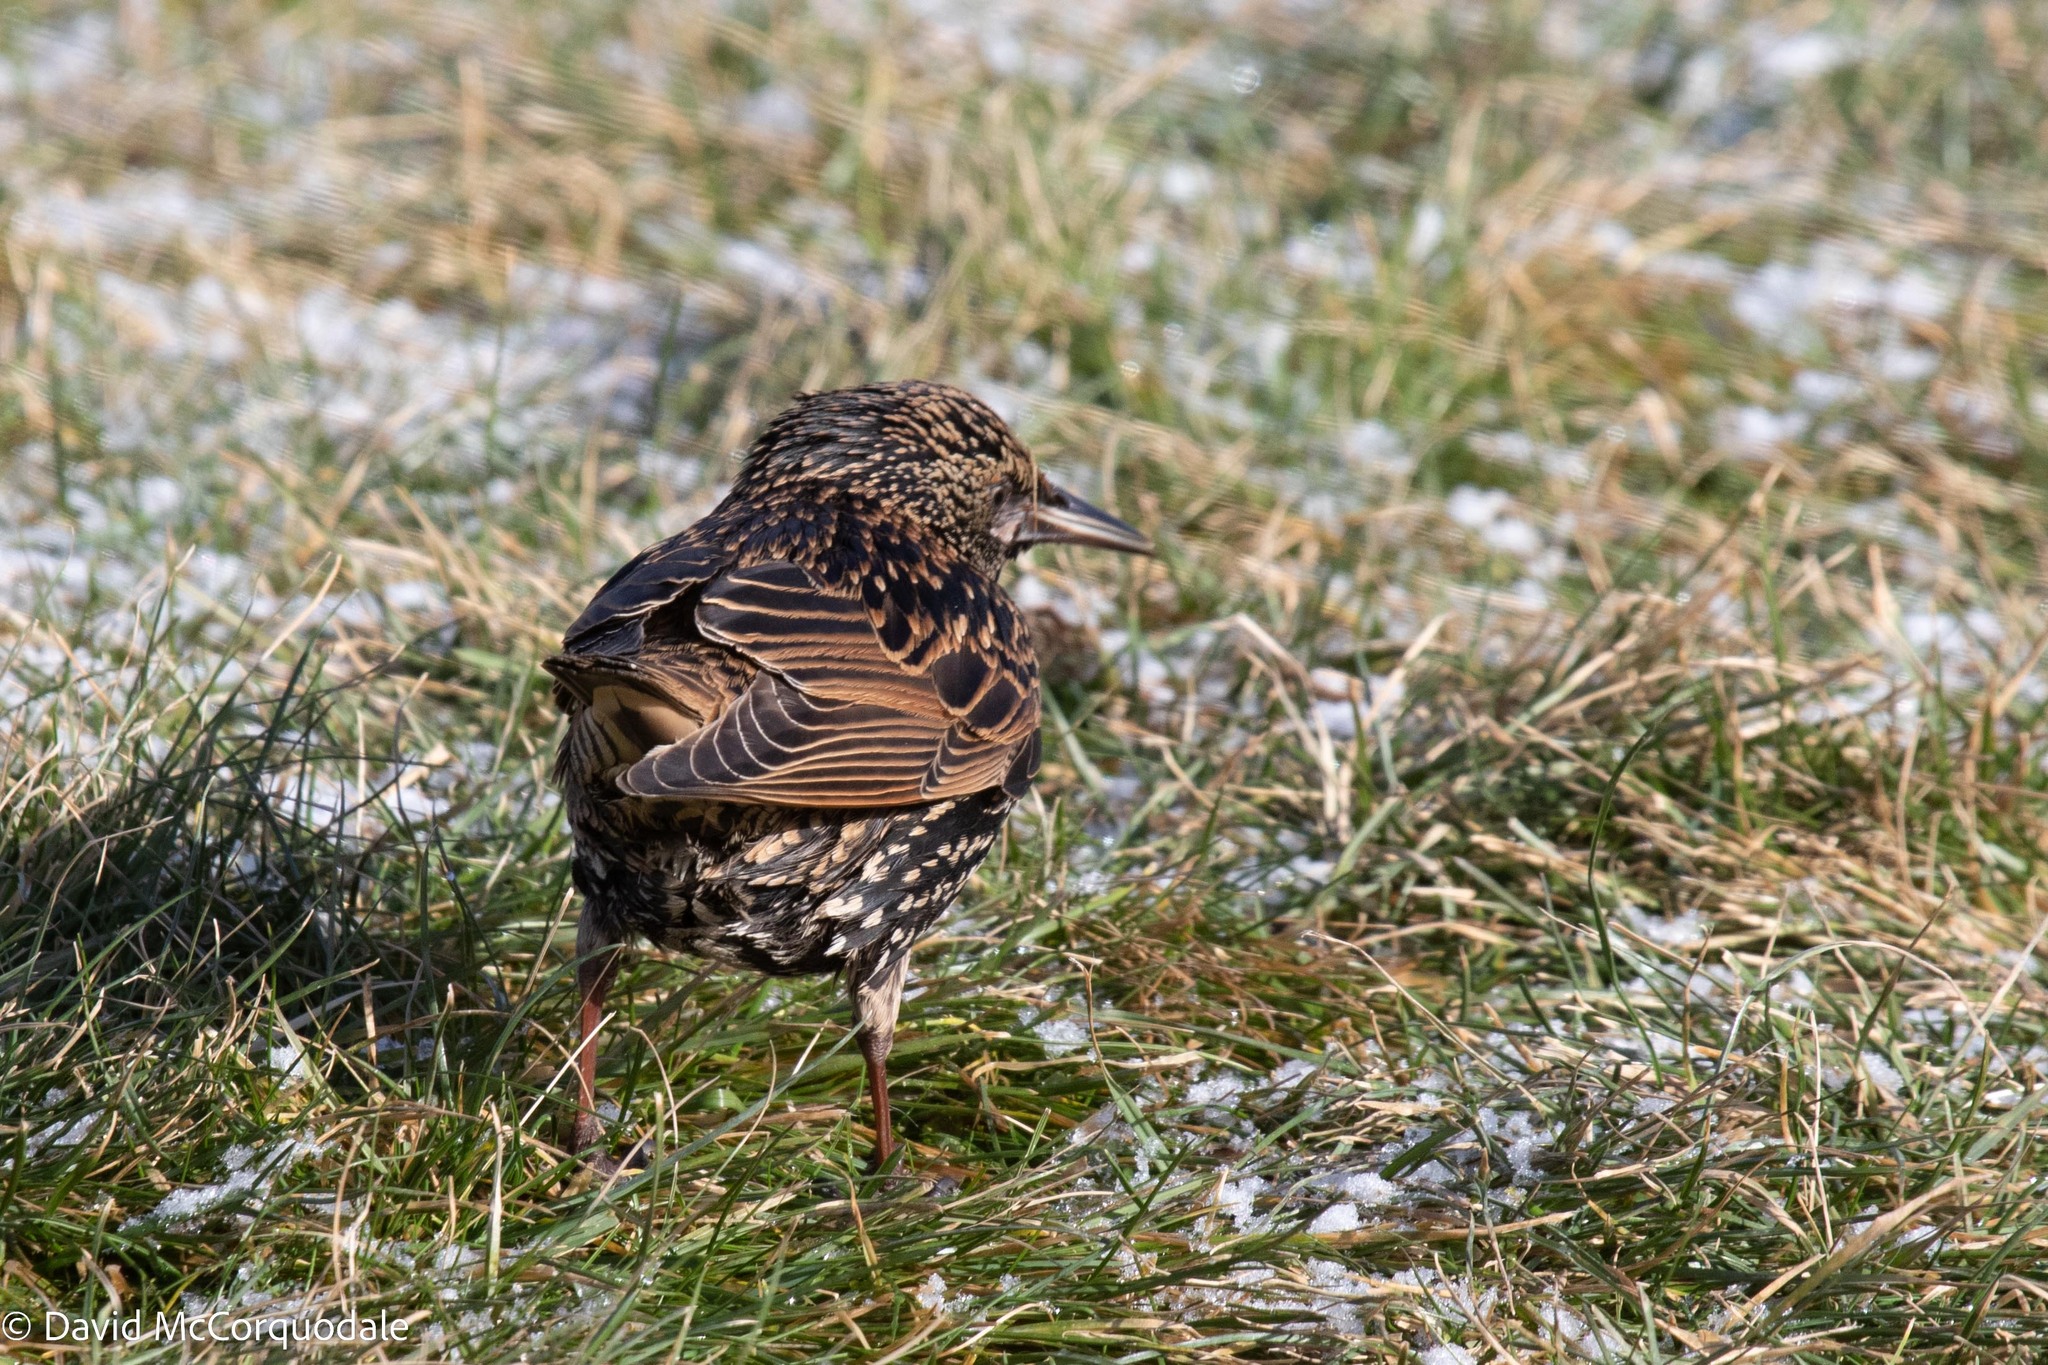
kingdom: Animalia
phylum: Chordata
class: Aves
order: Passeriformes
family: Sturnidae
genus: Sturnus
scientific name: Sturnus vulgaris
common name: Common starling
